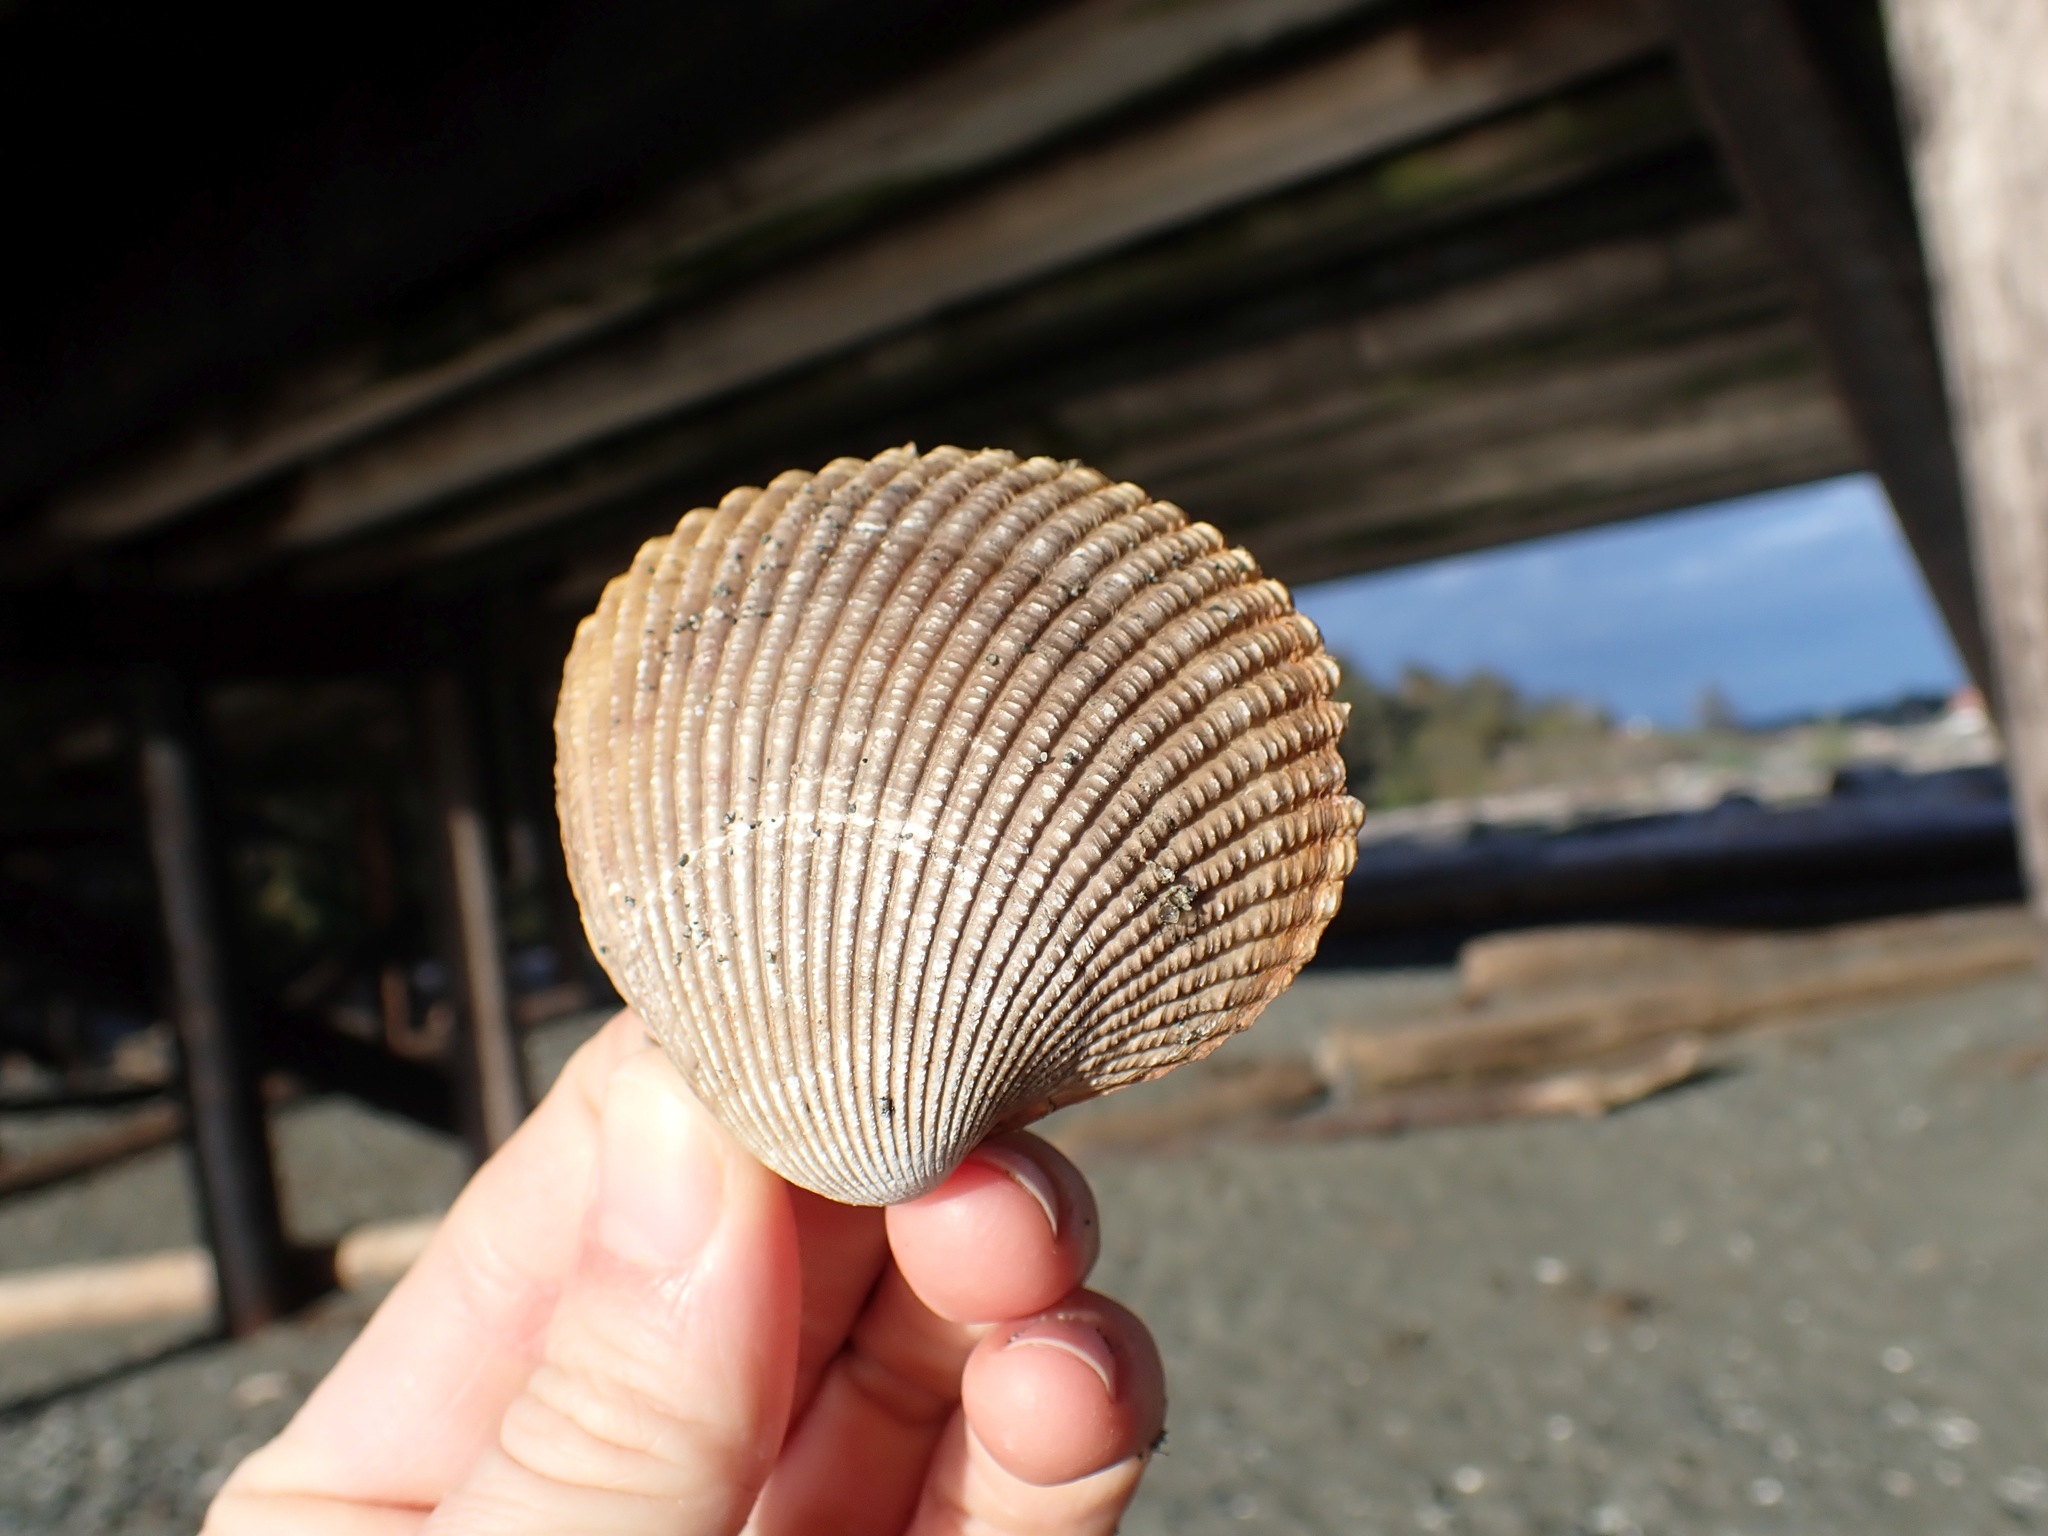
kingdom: Animalia
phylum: Mollusca
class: Bivalvia
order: Cardiida
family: Cardiidae
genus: Clinocardium
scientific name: Clinocardium nuttallii
